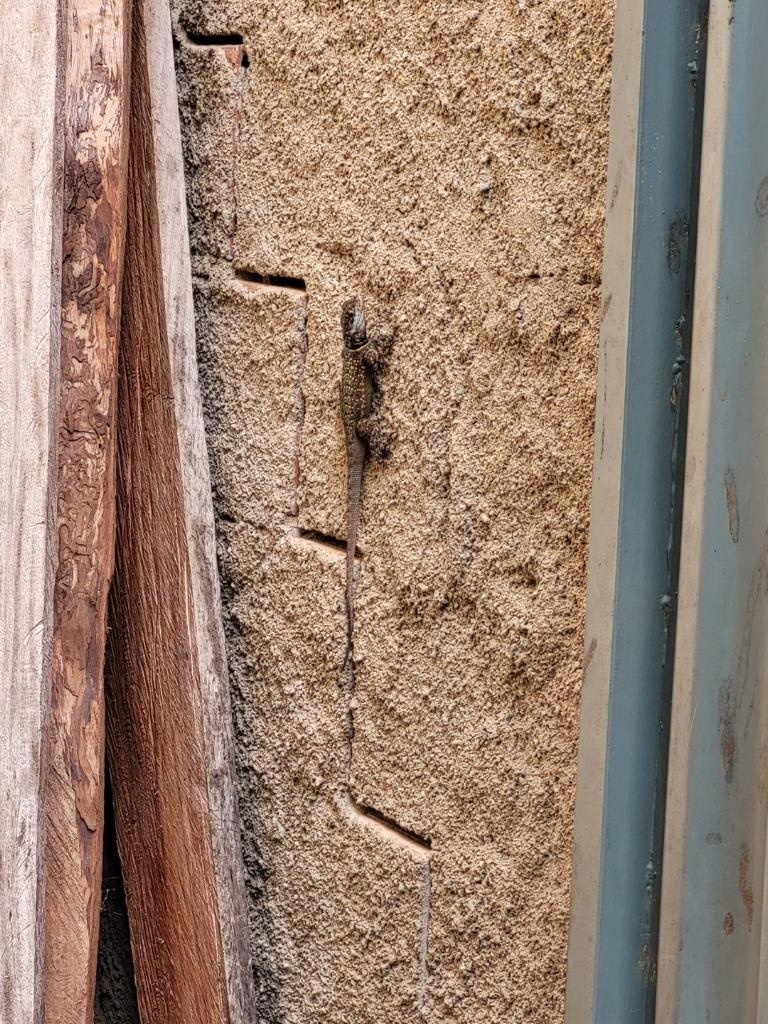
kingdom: Animalia
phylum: Chordata
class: Squamata
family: Tropiduridae
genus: Tropidurus
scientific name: Tropidurus torquatus
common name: Amazon lava lizard
